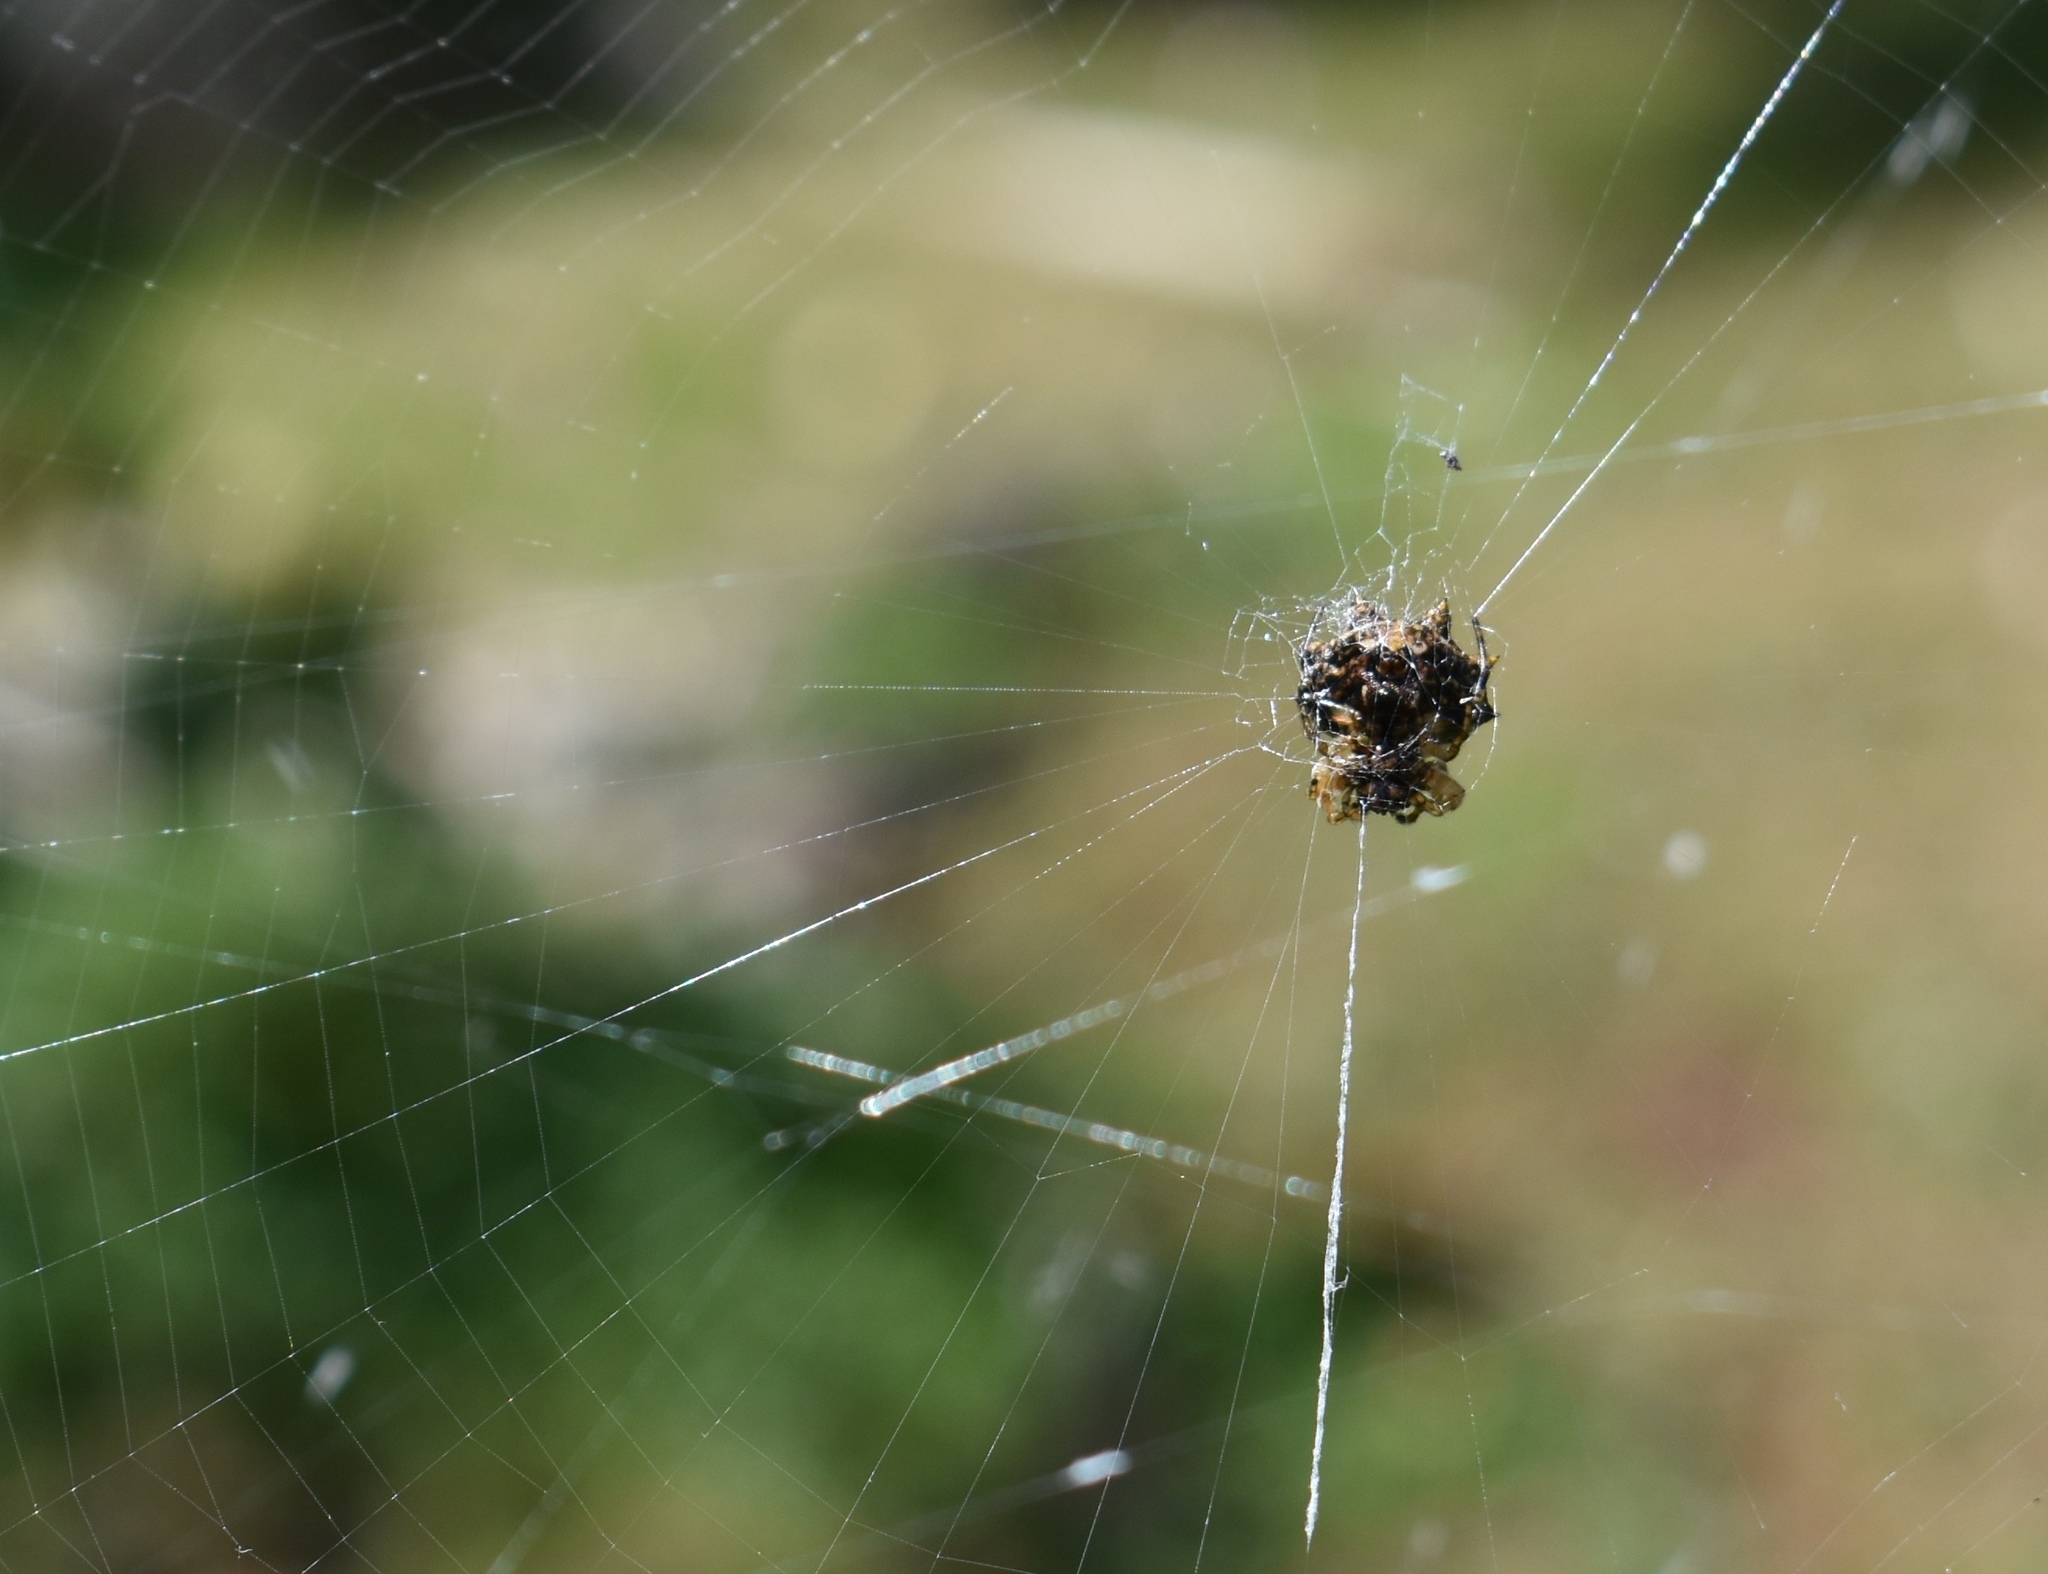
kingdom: Animalia
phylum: Arthropoda
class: Arachnida
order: Araneae
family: Araneidae
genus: Thelacantha
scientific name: Thelacantha brevispina
